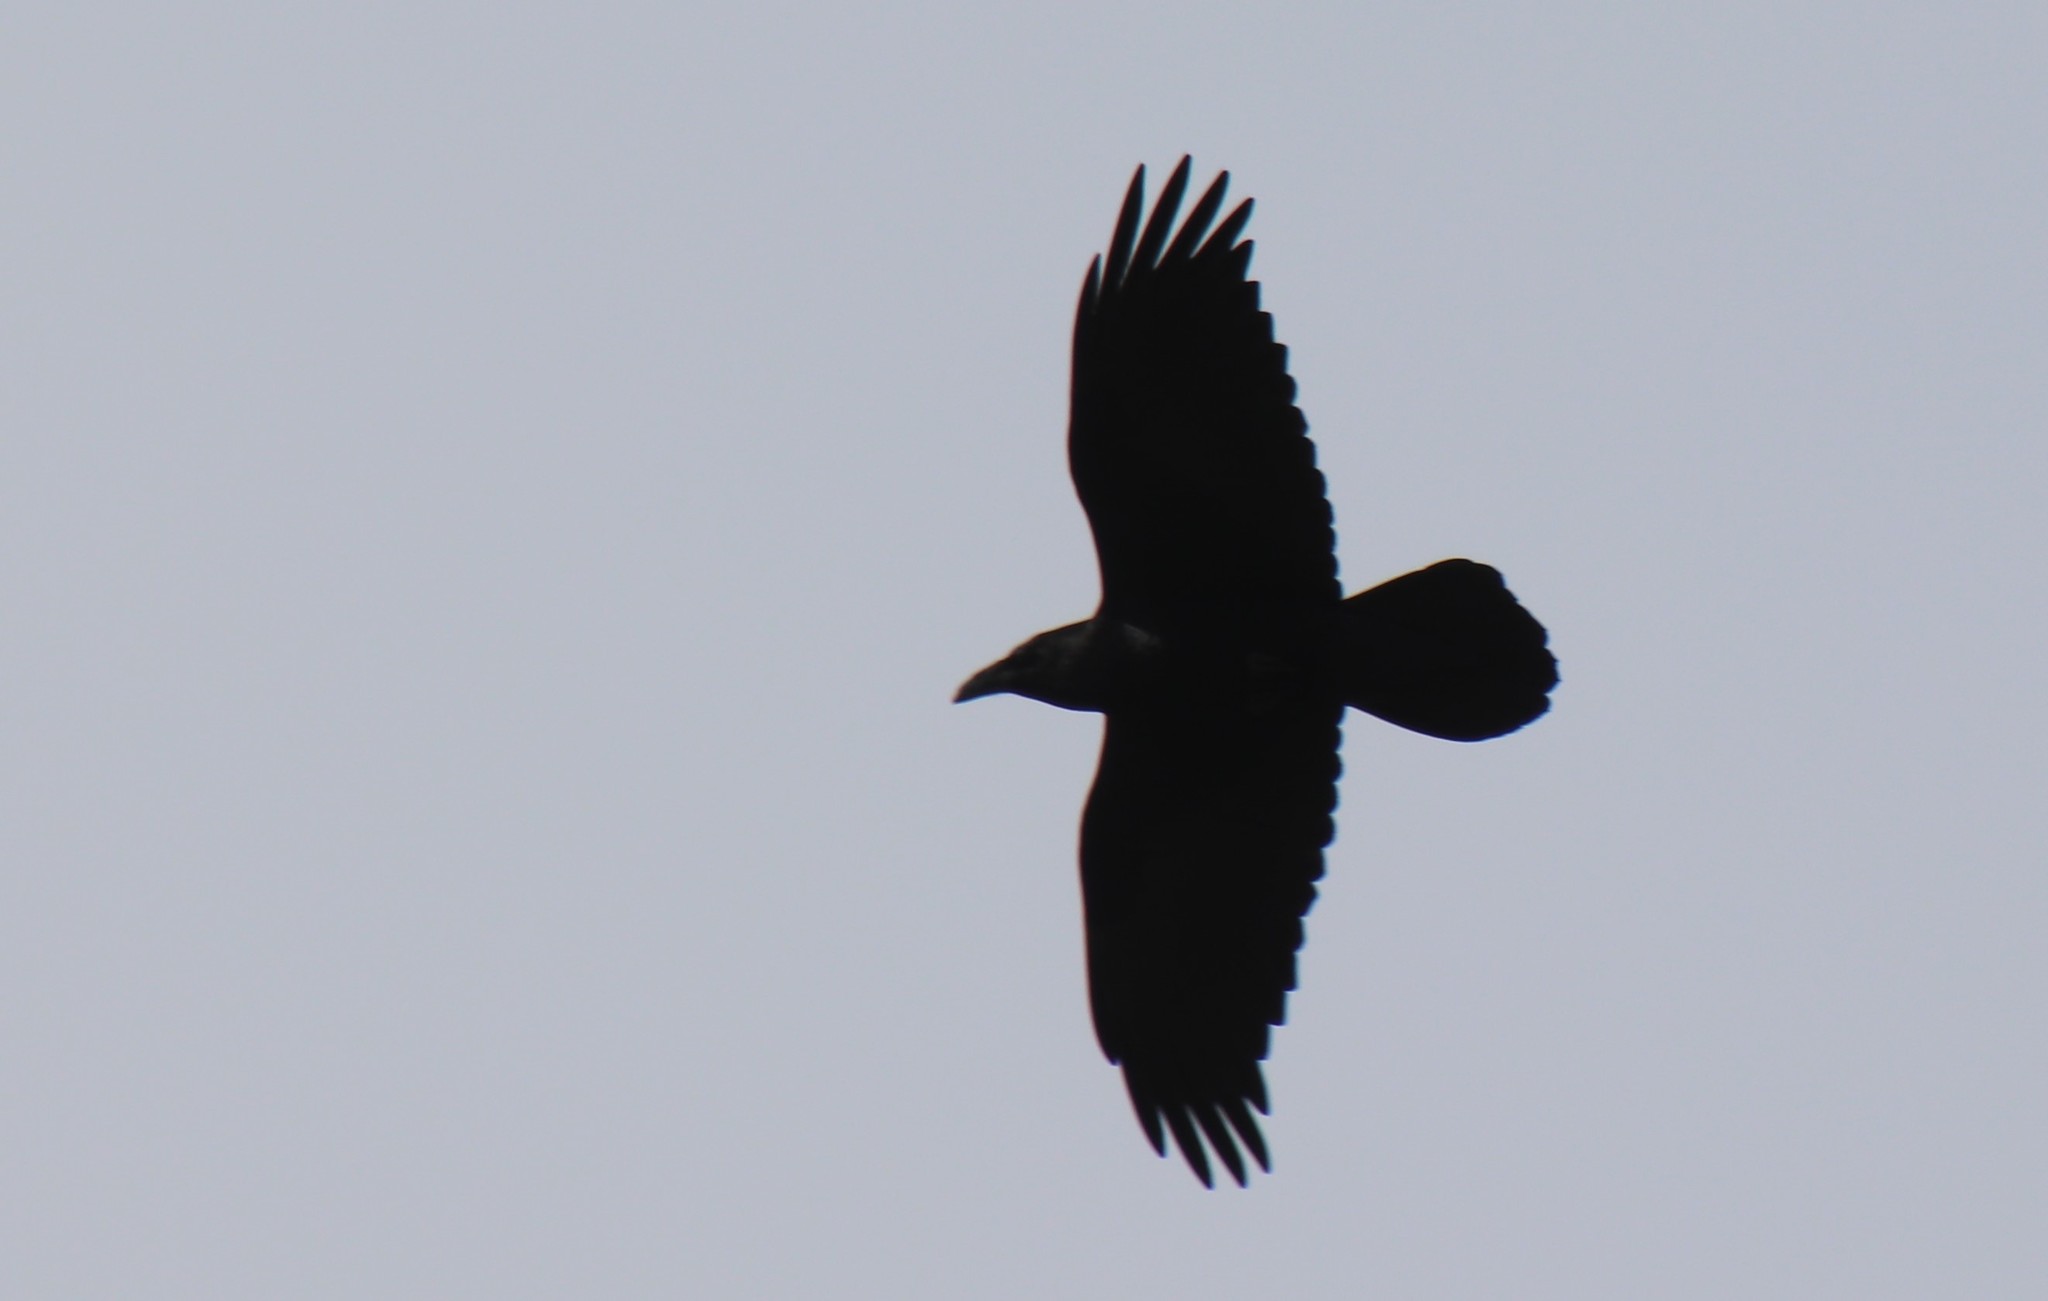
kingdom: Animalia
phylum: Chordata
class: Aves
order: Passeriformes
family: Corvidae
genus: Corvus
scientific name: Corvus corax
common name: Common raven
